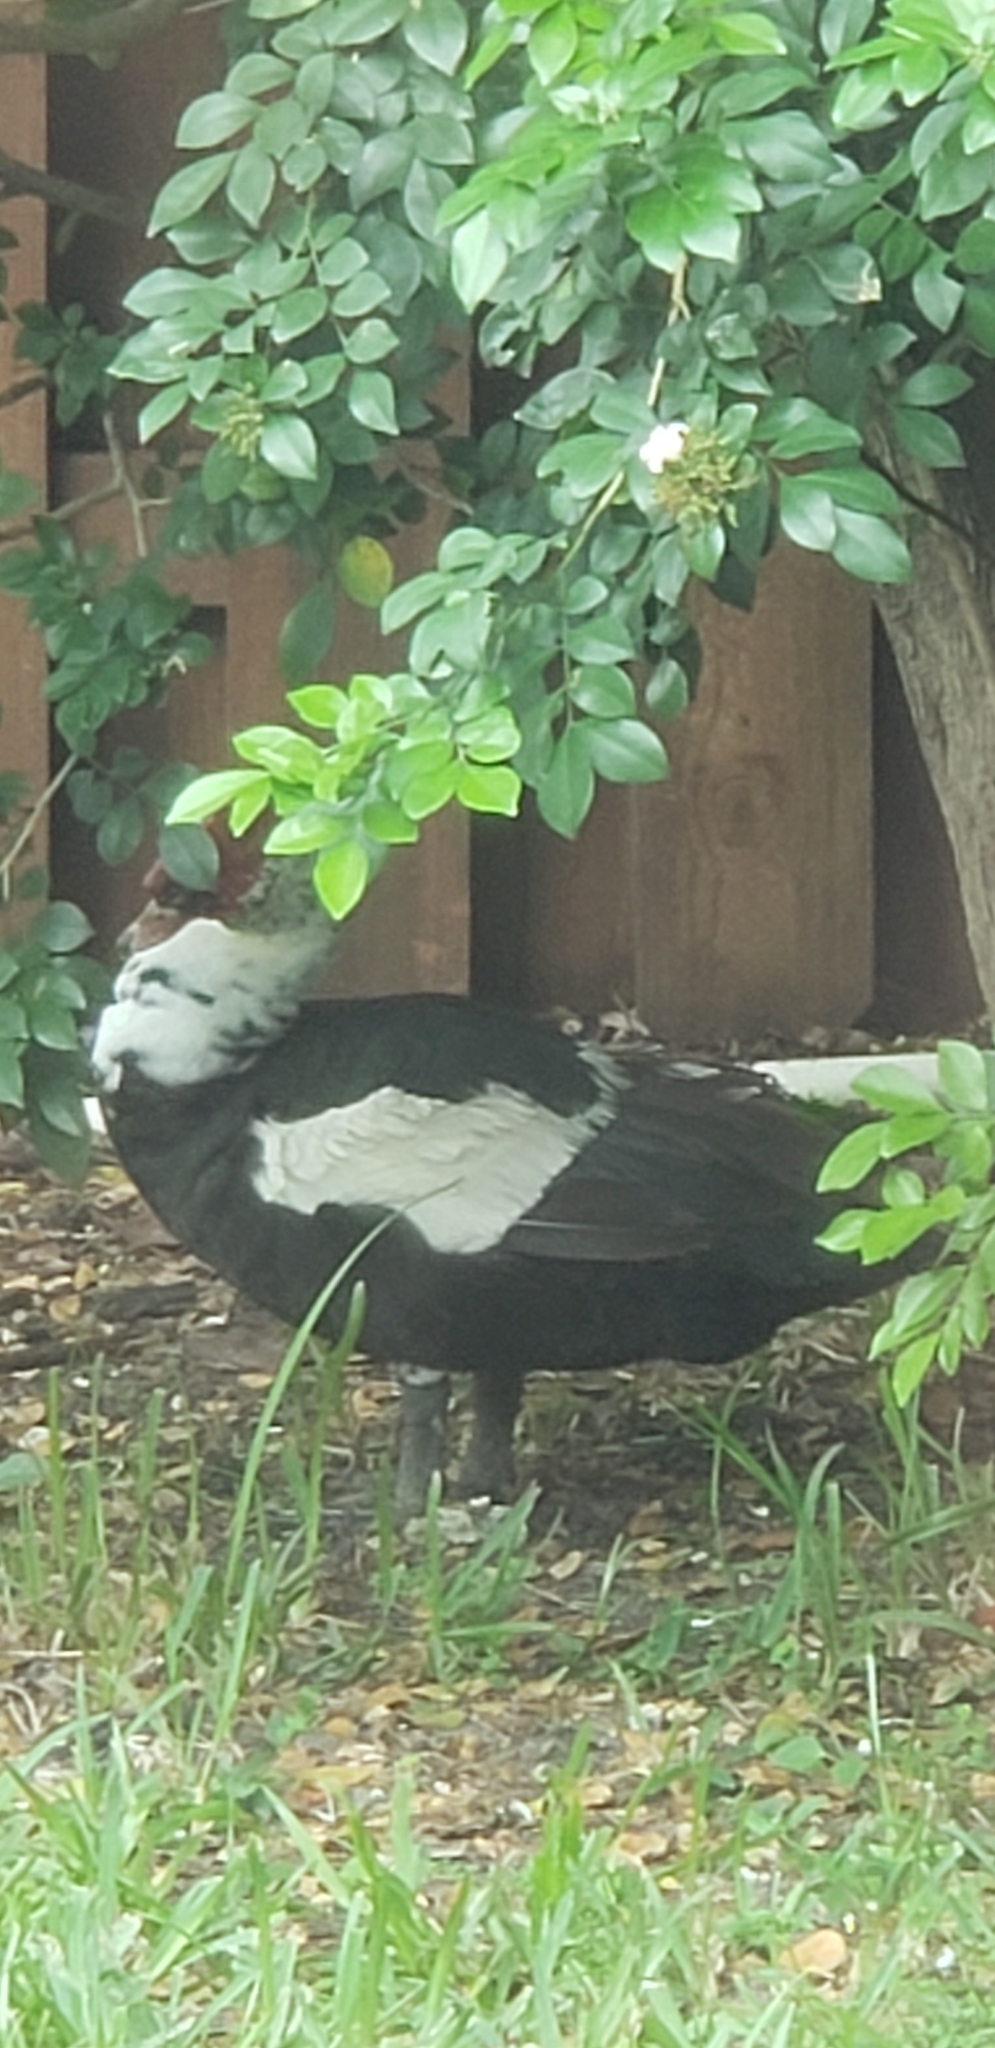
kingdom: Animalia
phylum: Chordata
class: Aves
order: Anseriformes
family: Anatidae
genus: Cairina
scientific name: Cairina moschata
